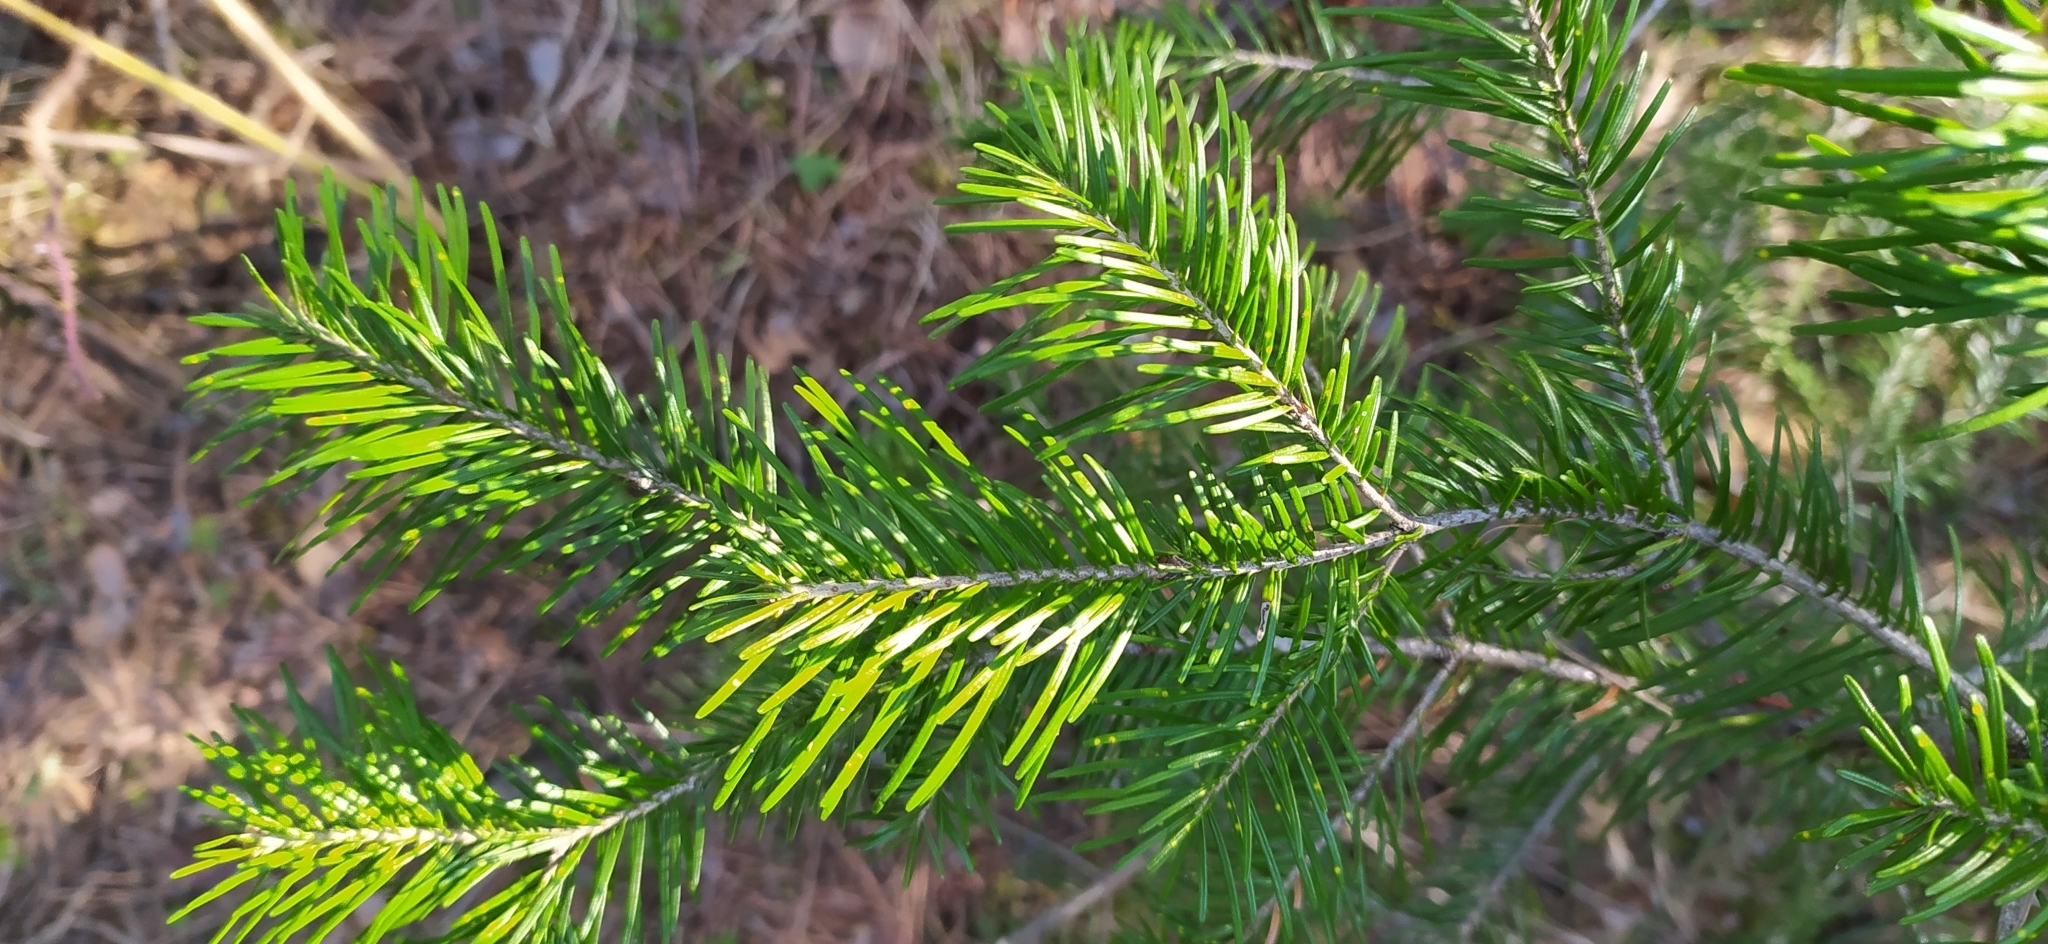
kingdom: Plantae
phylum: Tracheophyta
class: Pinopsida
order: Pinales
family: Pinaceae
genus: Abies
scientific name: Abies sibirica
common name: Siberian fir
